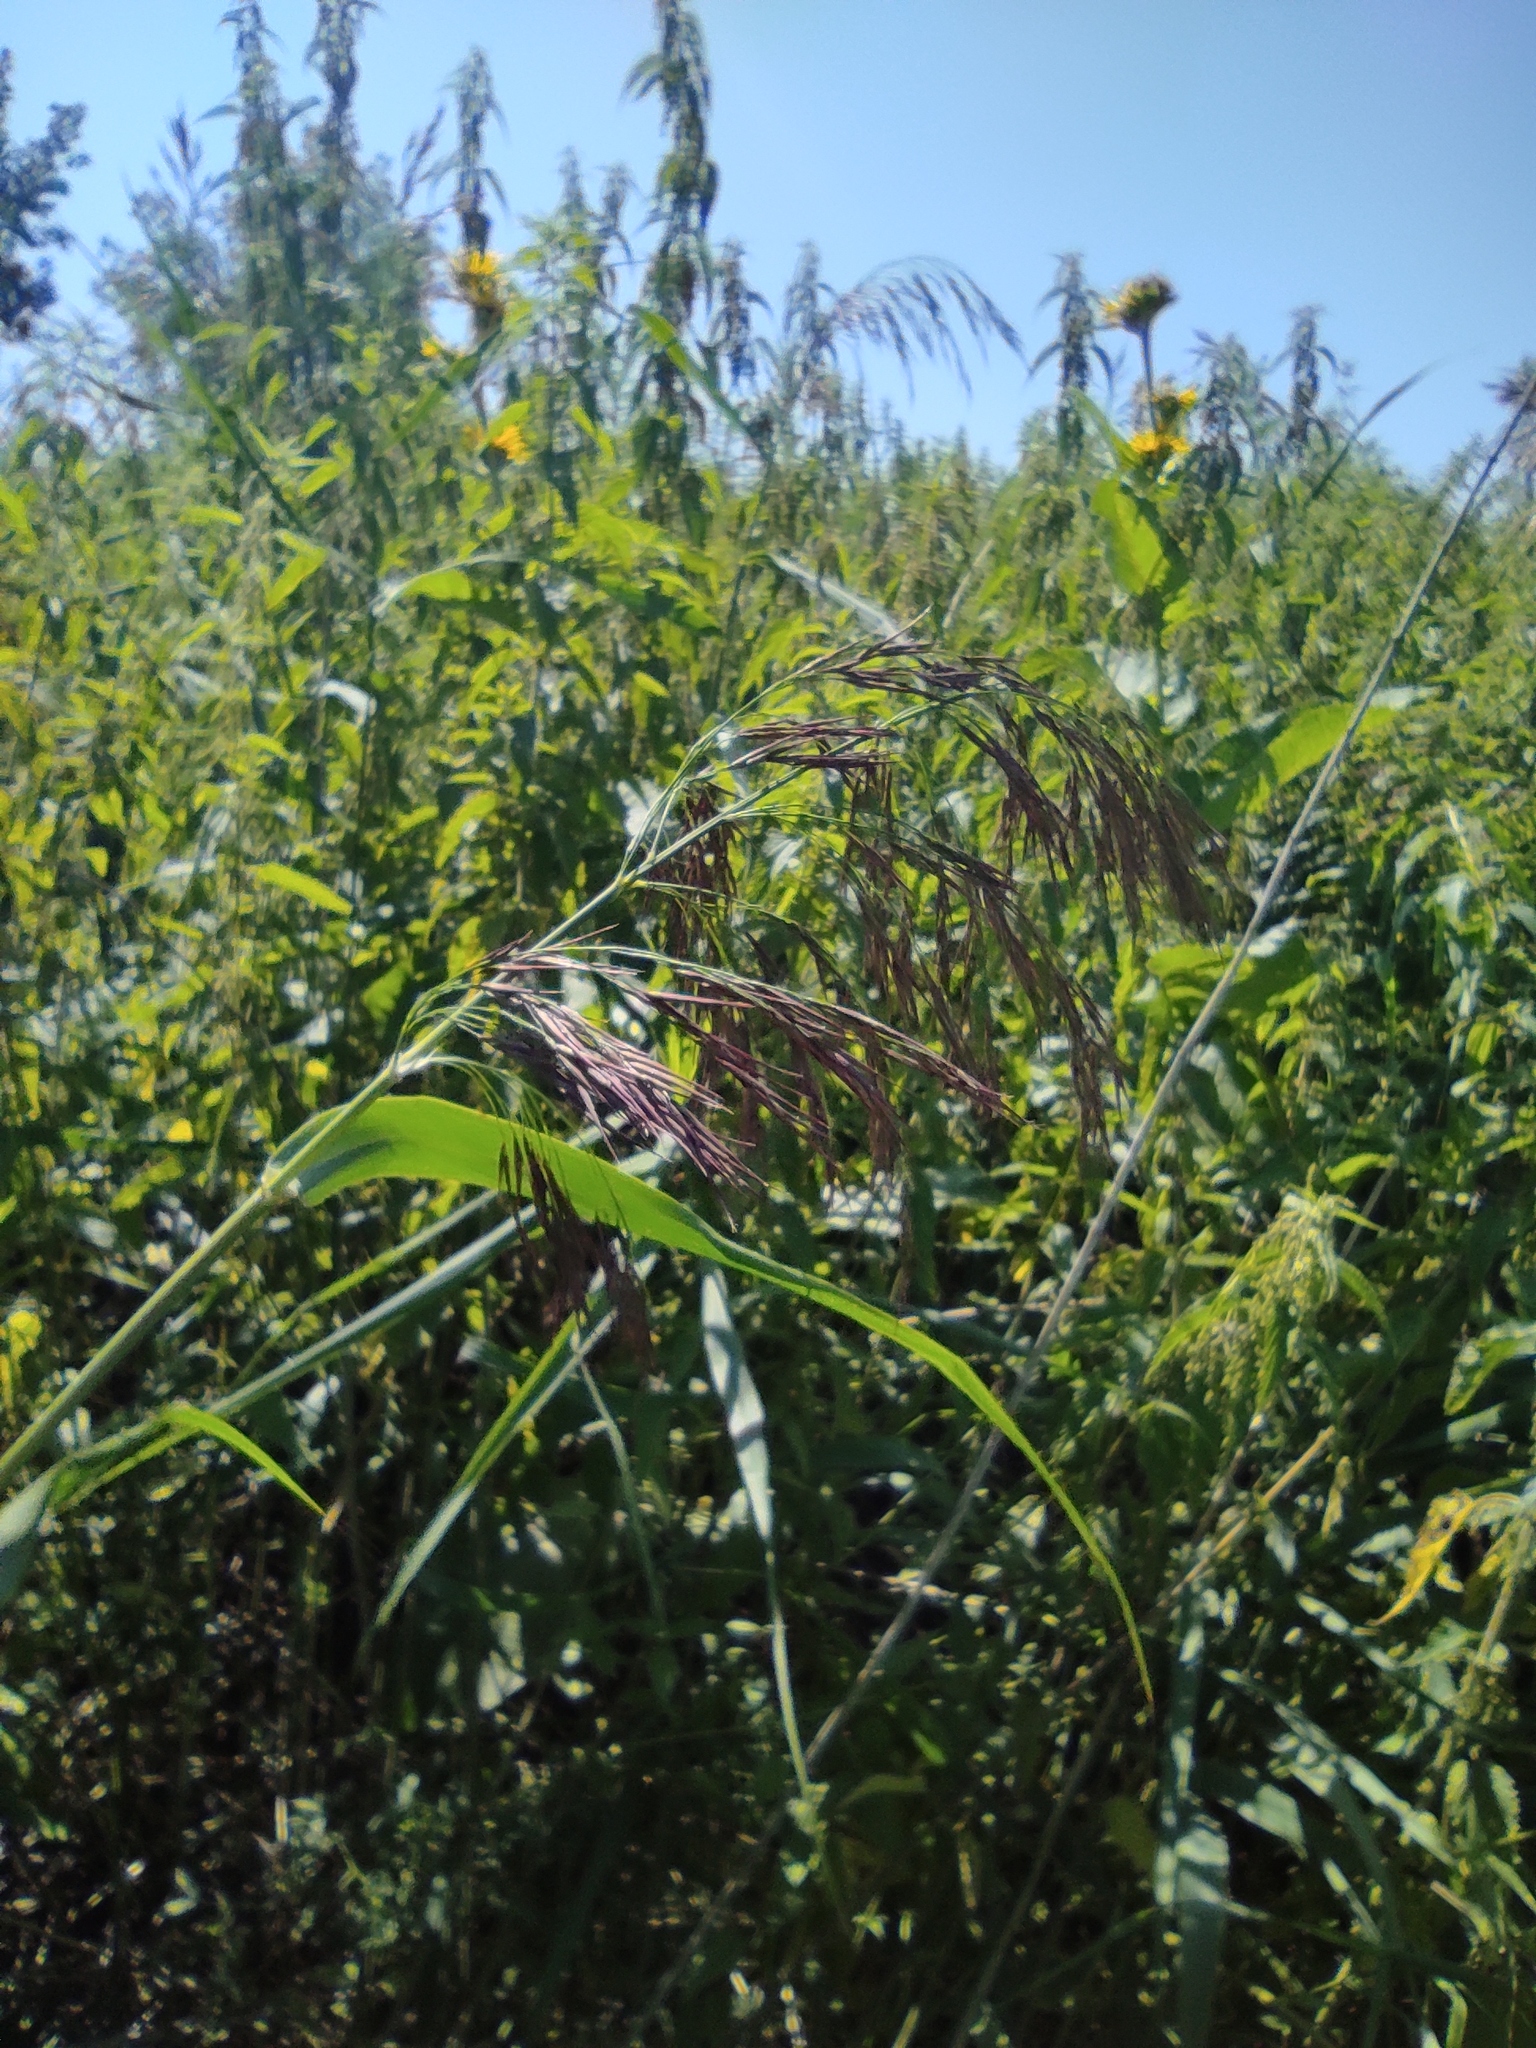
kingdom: Plantae
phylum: Tracheophyta
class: Liliopsida
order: Poales
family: Poaceae
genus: Phragmites
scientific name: Phragmites australis
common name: Common reed
